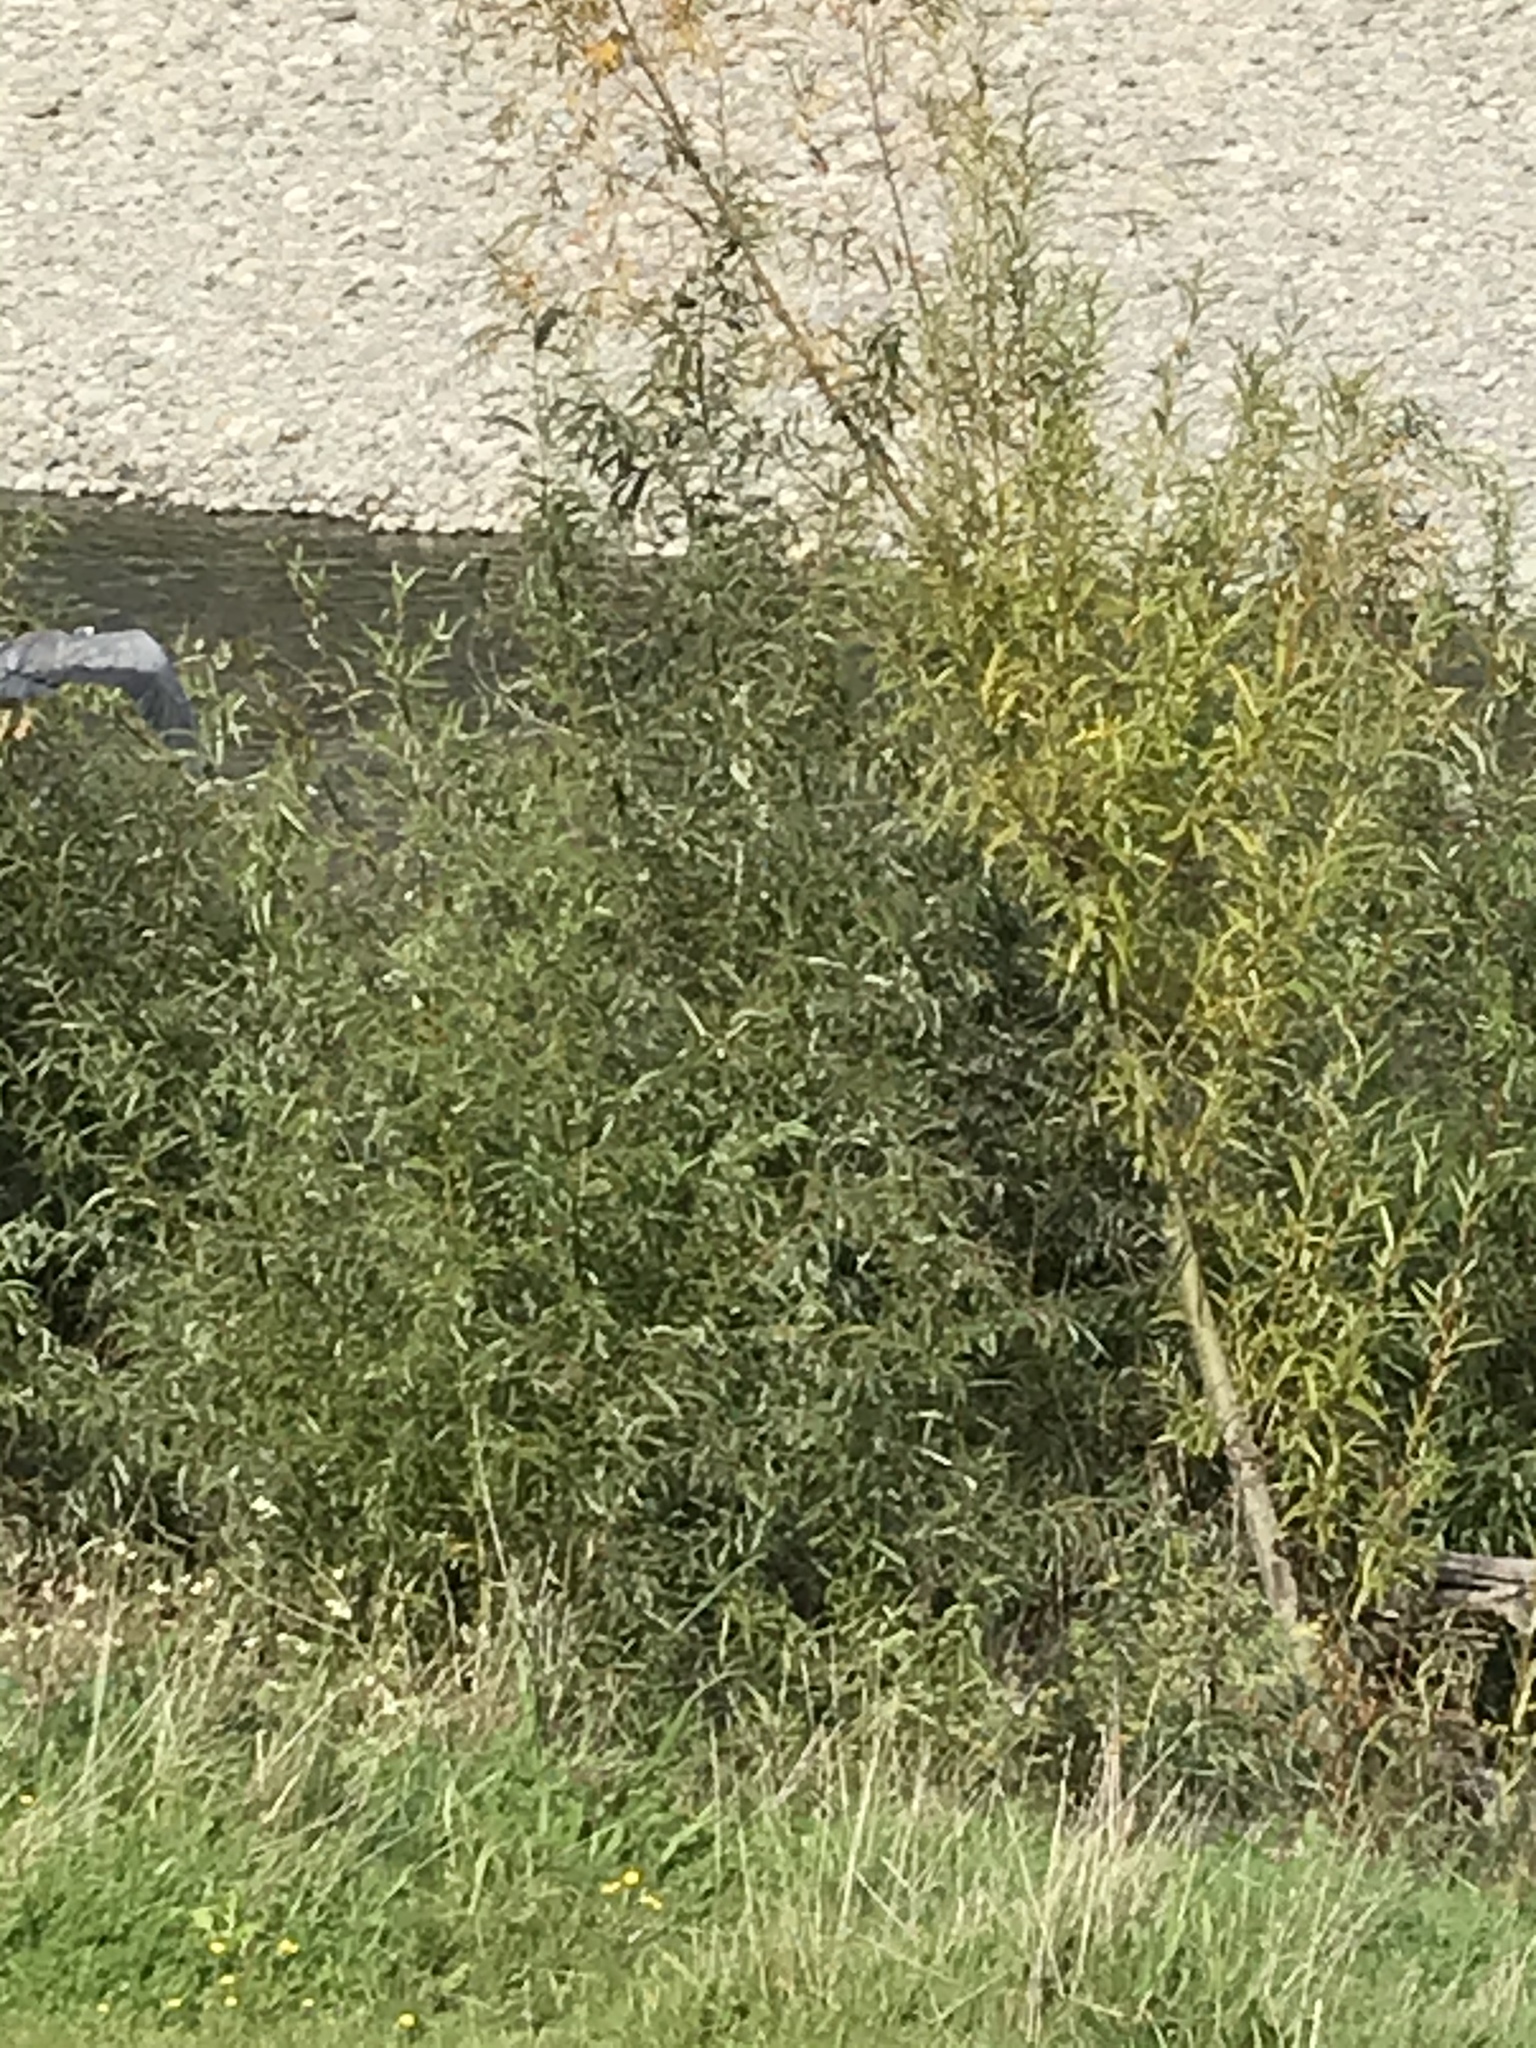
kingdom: Animalia
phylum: Chordata
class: Aves
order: Pelecaniformes
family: Ardeidae
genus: Egretta
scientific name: Egretta novaehollandiae
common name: White-faced heron
